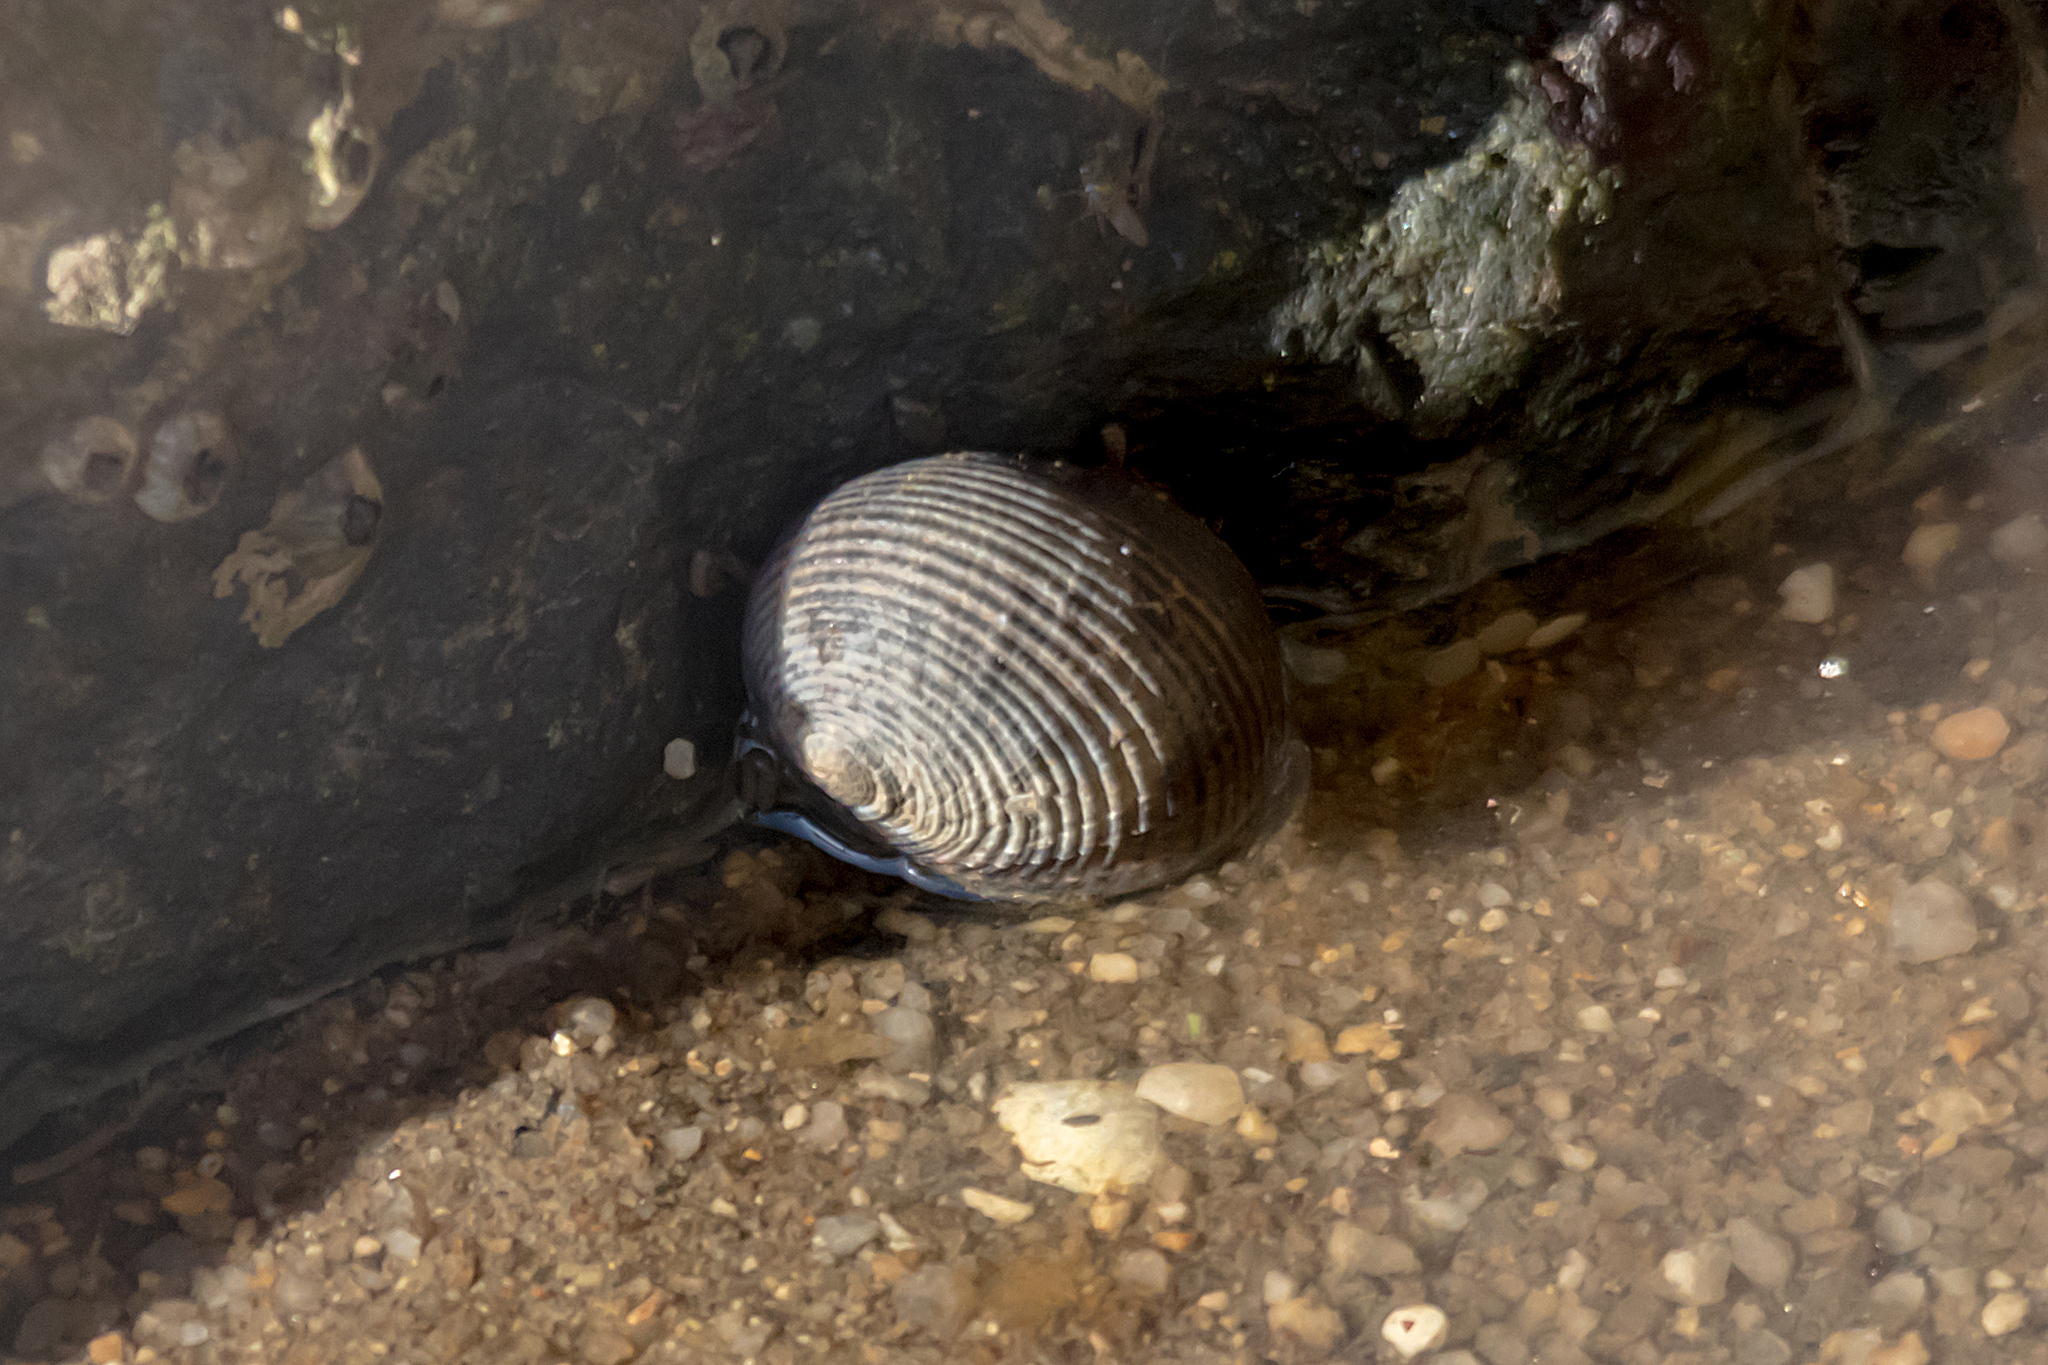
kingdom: Animalia
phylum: Mollusca
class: Gastropoda
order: Cycloneritida
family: Neritidae
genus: Nerita
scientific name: Nerita balteata
